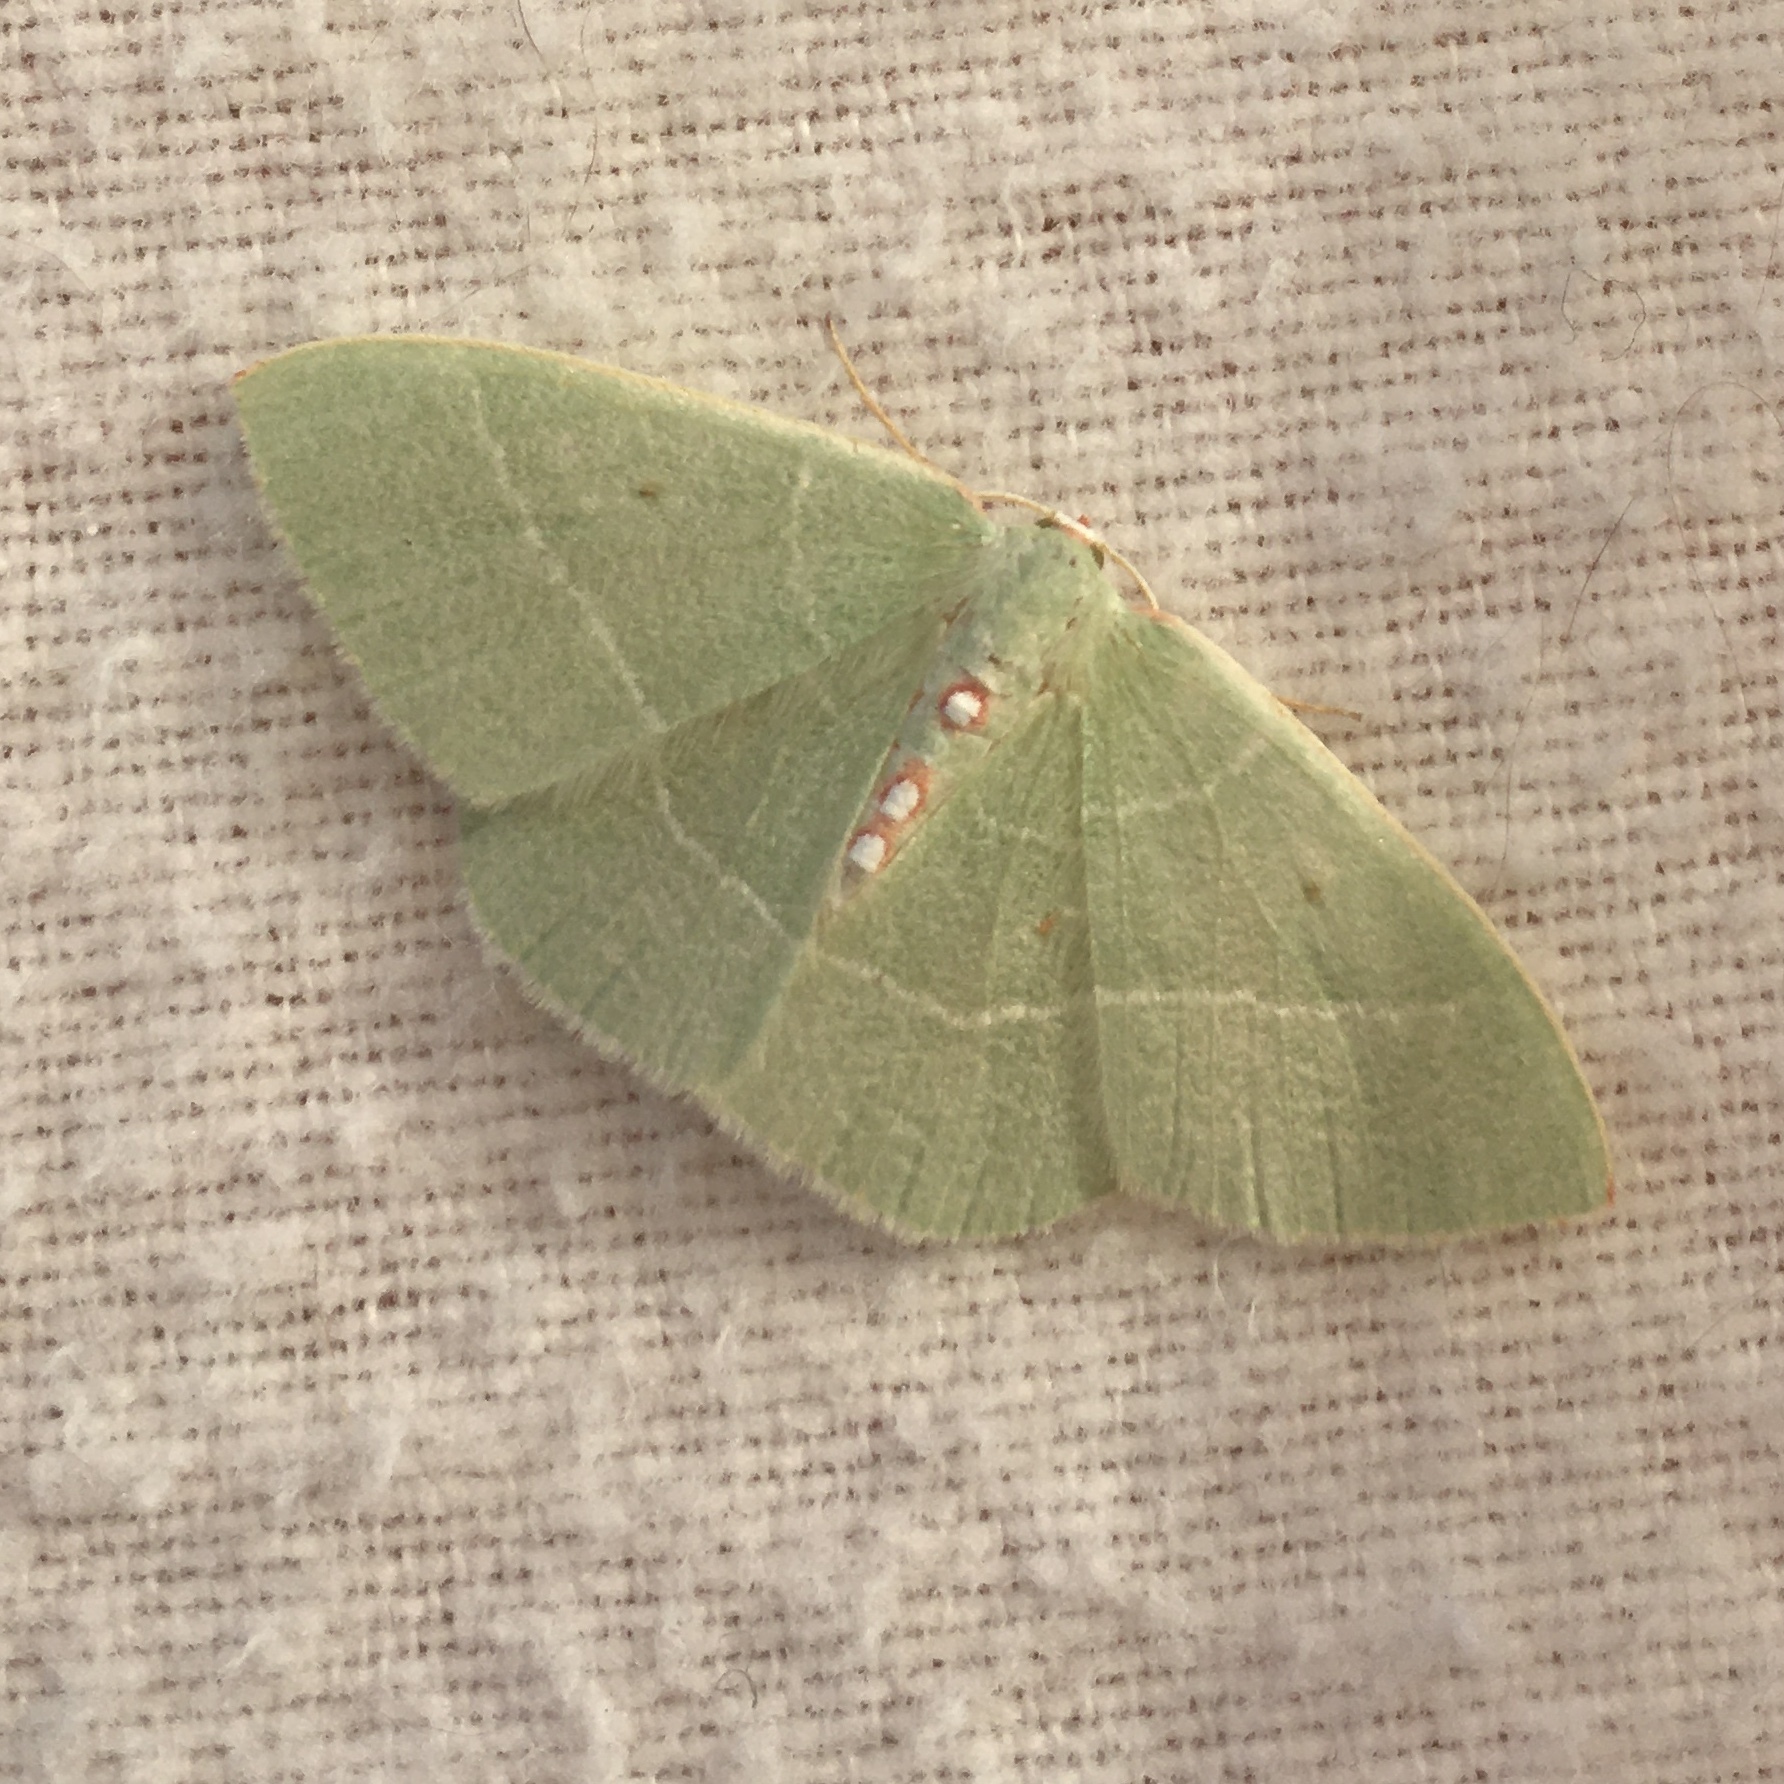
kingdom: Animalia
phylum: Arthropoda
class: Insecta
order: Lepidoptera
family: Geometridae
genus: Nemoria
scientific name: Nemoria darwiniata
